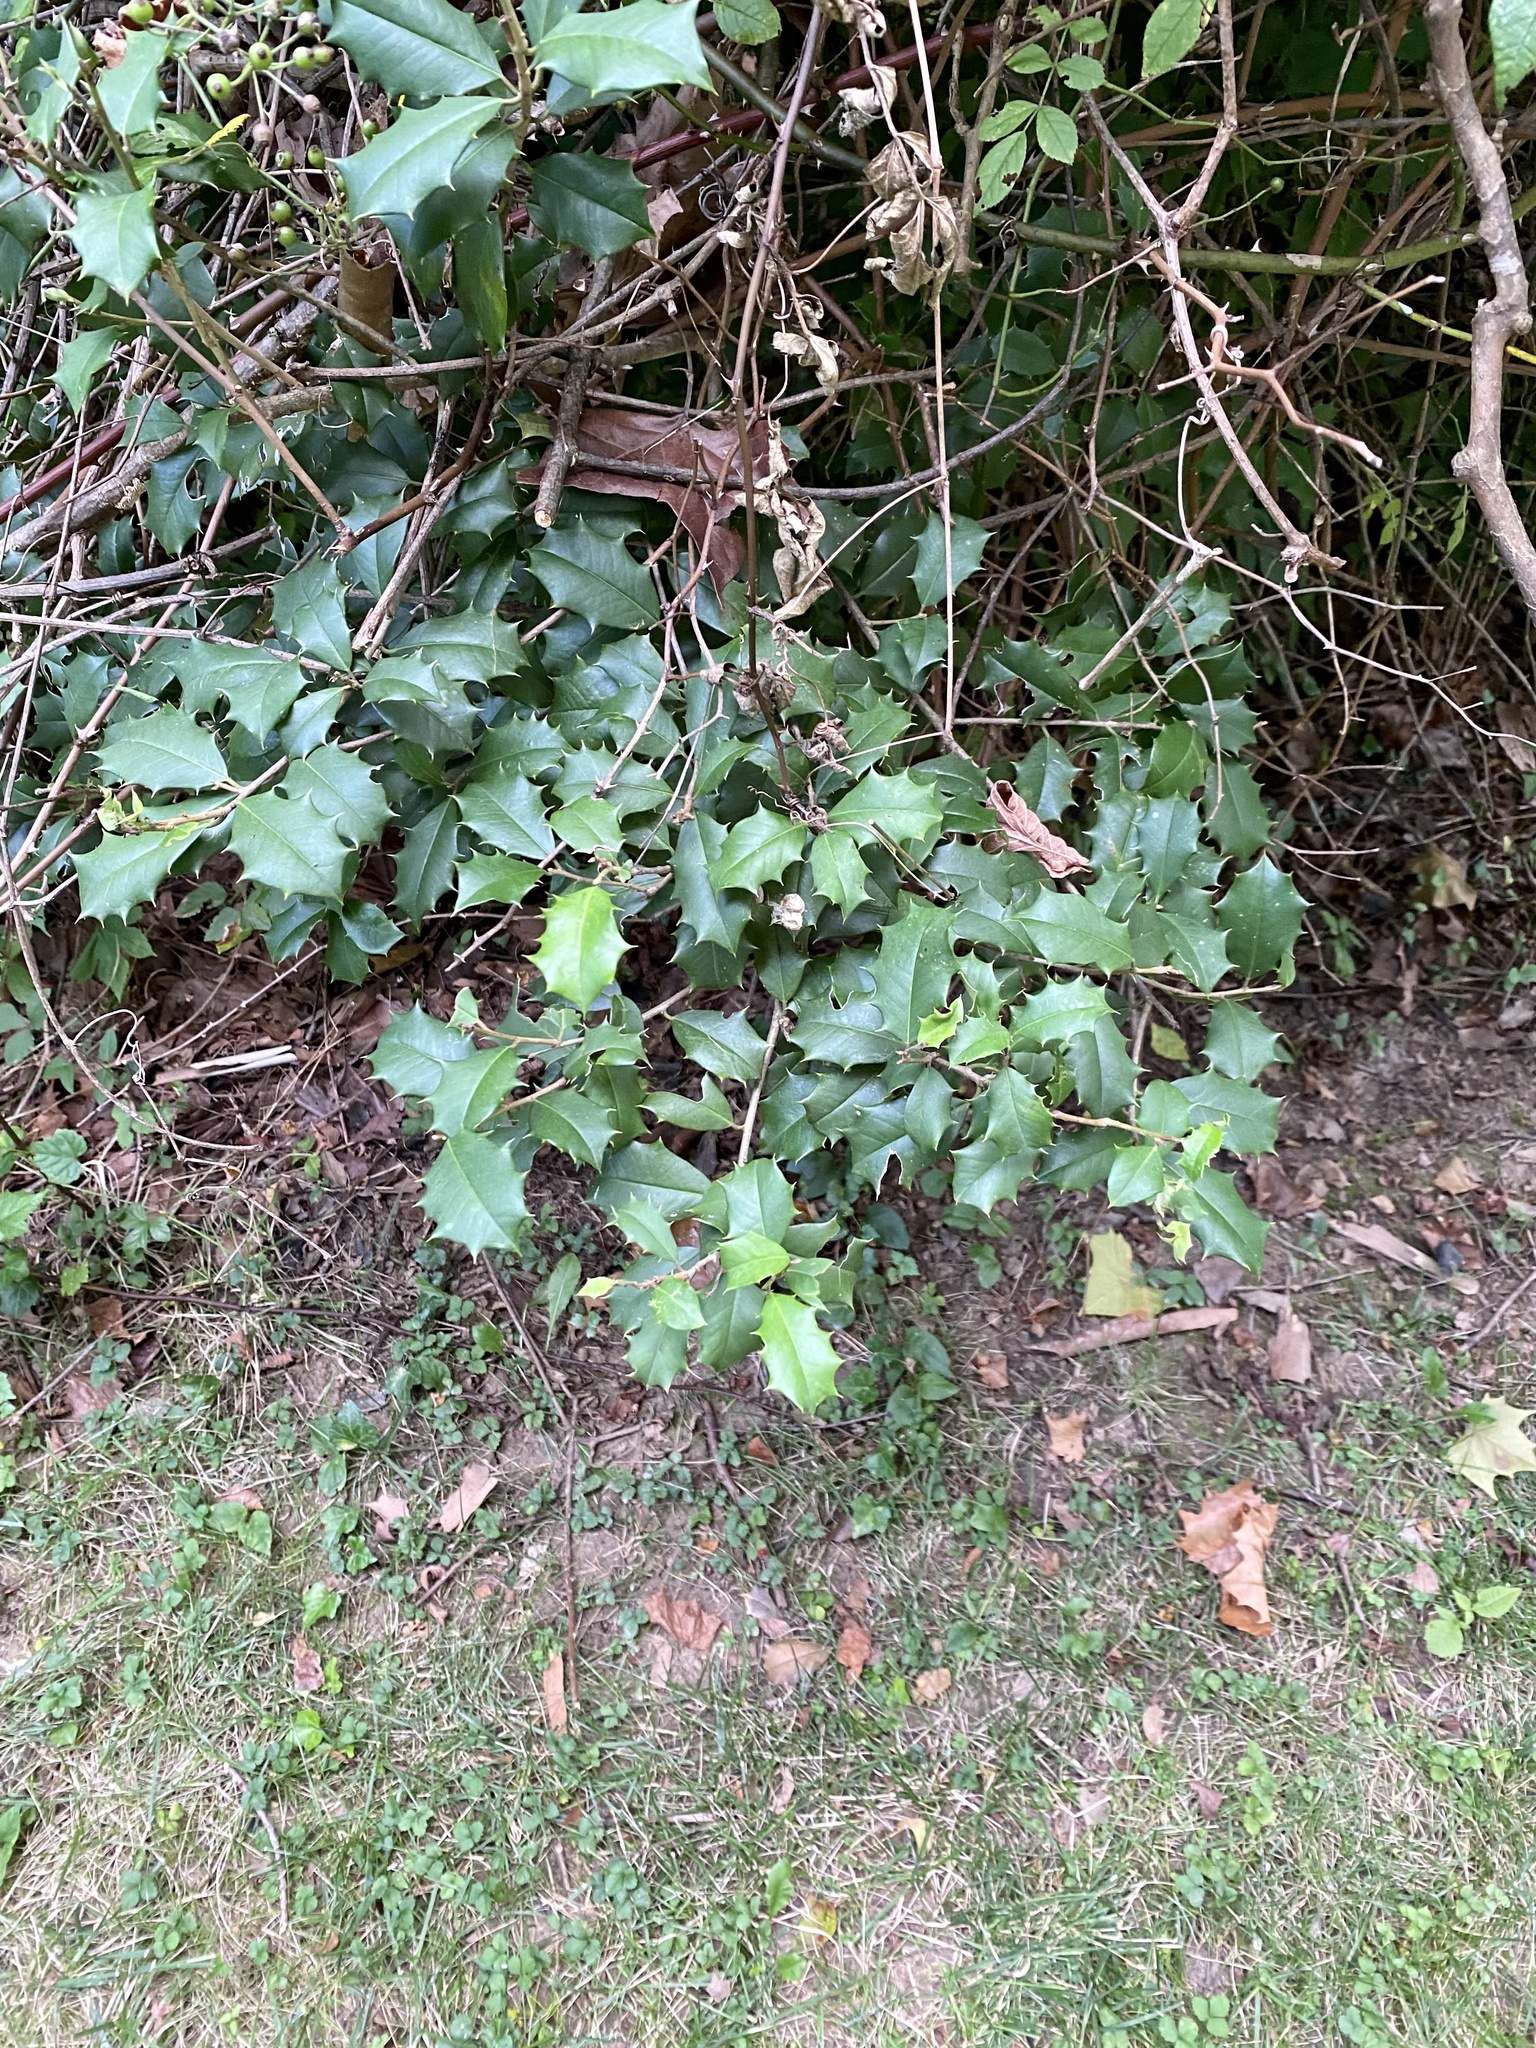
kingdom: Plantae
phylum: Tracheophyta
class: Magnoliopsida
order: Aquifoliales
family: Aquifoliaceae
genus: Ilex
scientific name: Ilex opaca
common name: American holly
